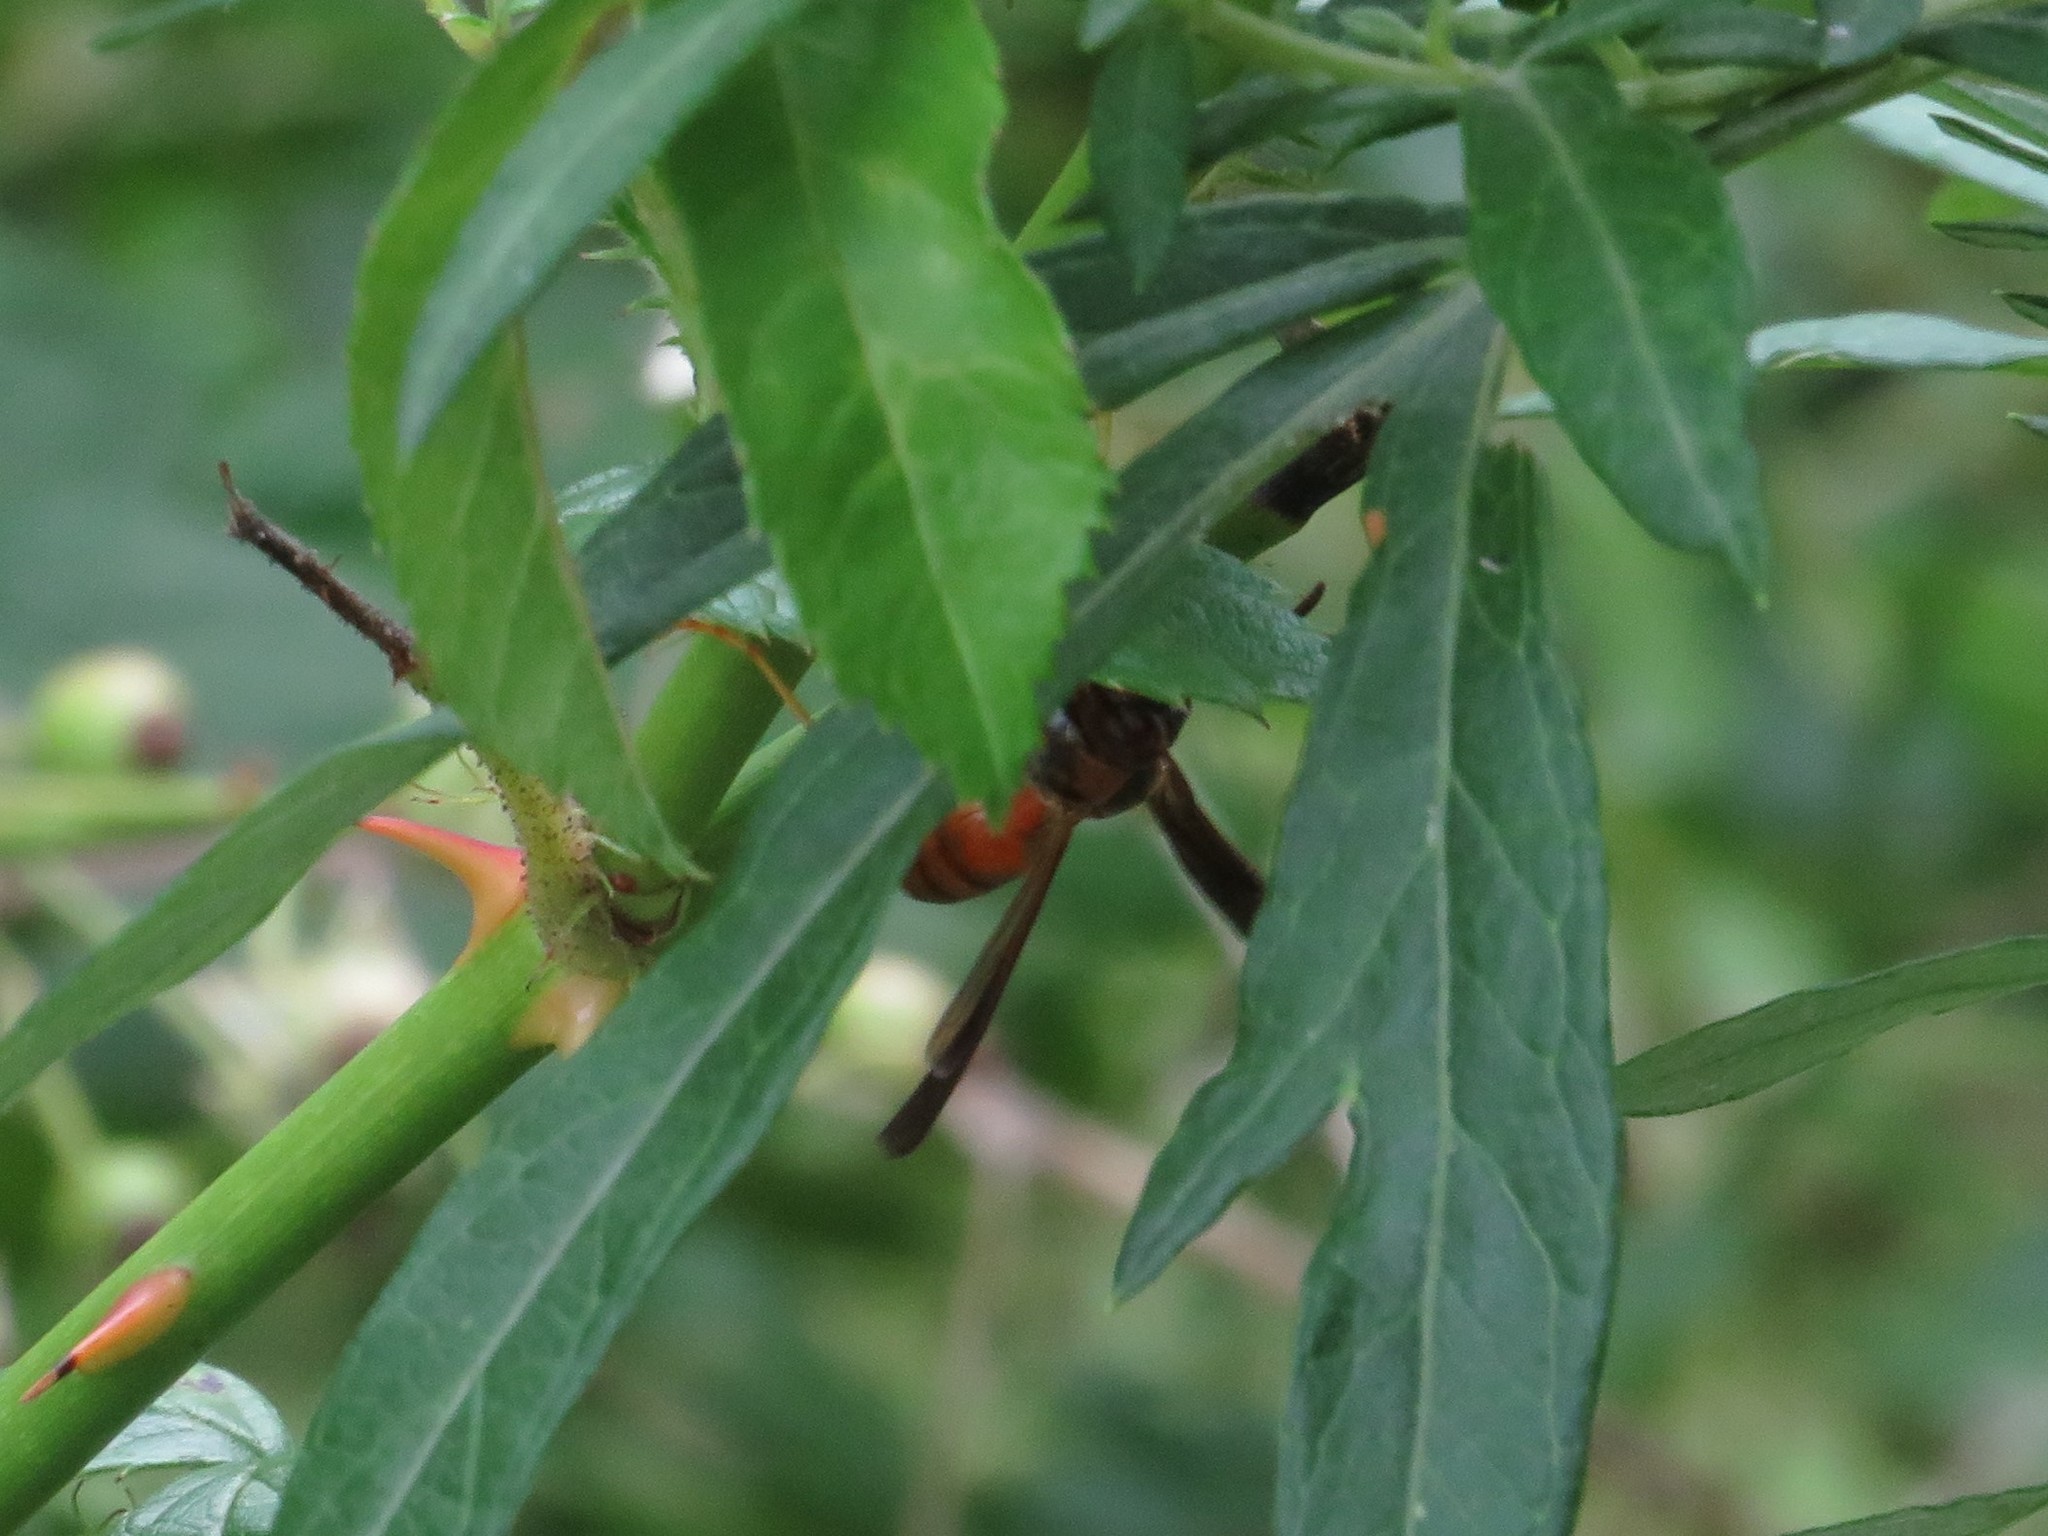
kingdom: Animalia
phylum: Arthropoda
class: Insecta
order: Hymenoptera
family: Vespidae
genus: Fuscopolistes
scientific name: Fuscopolistes
